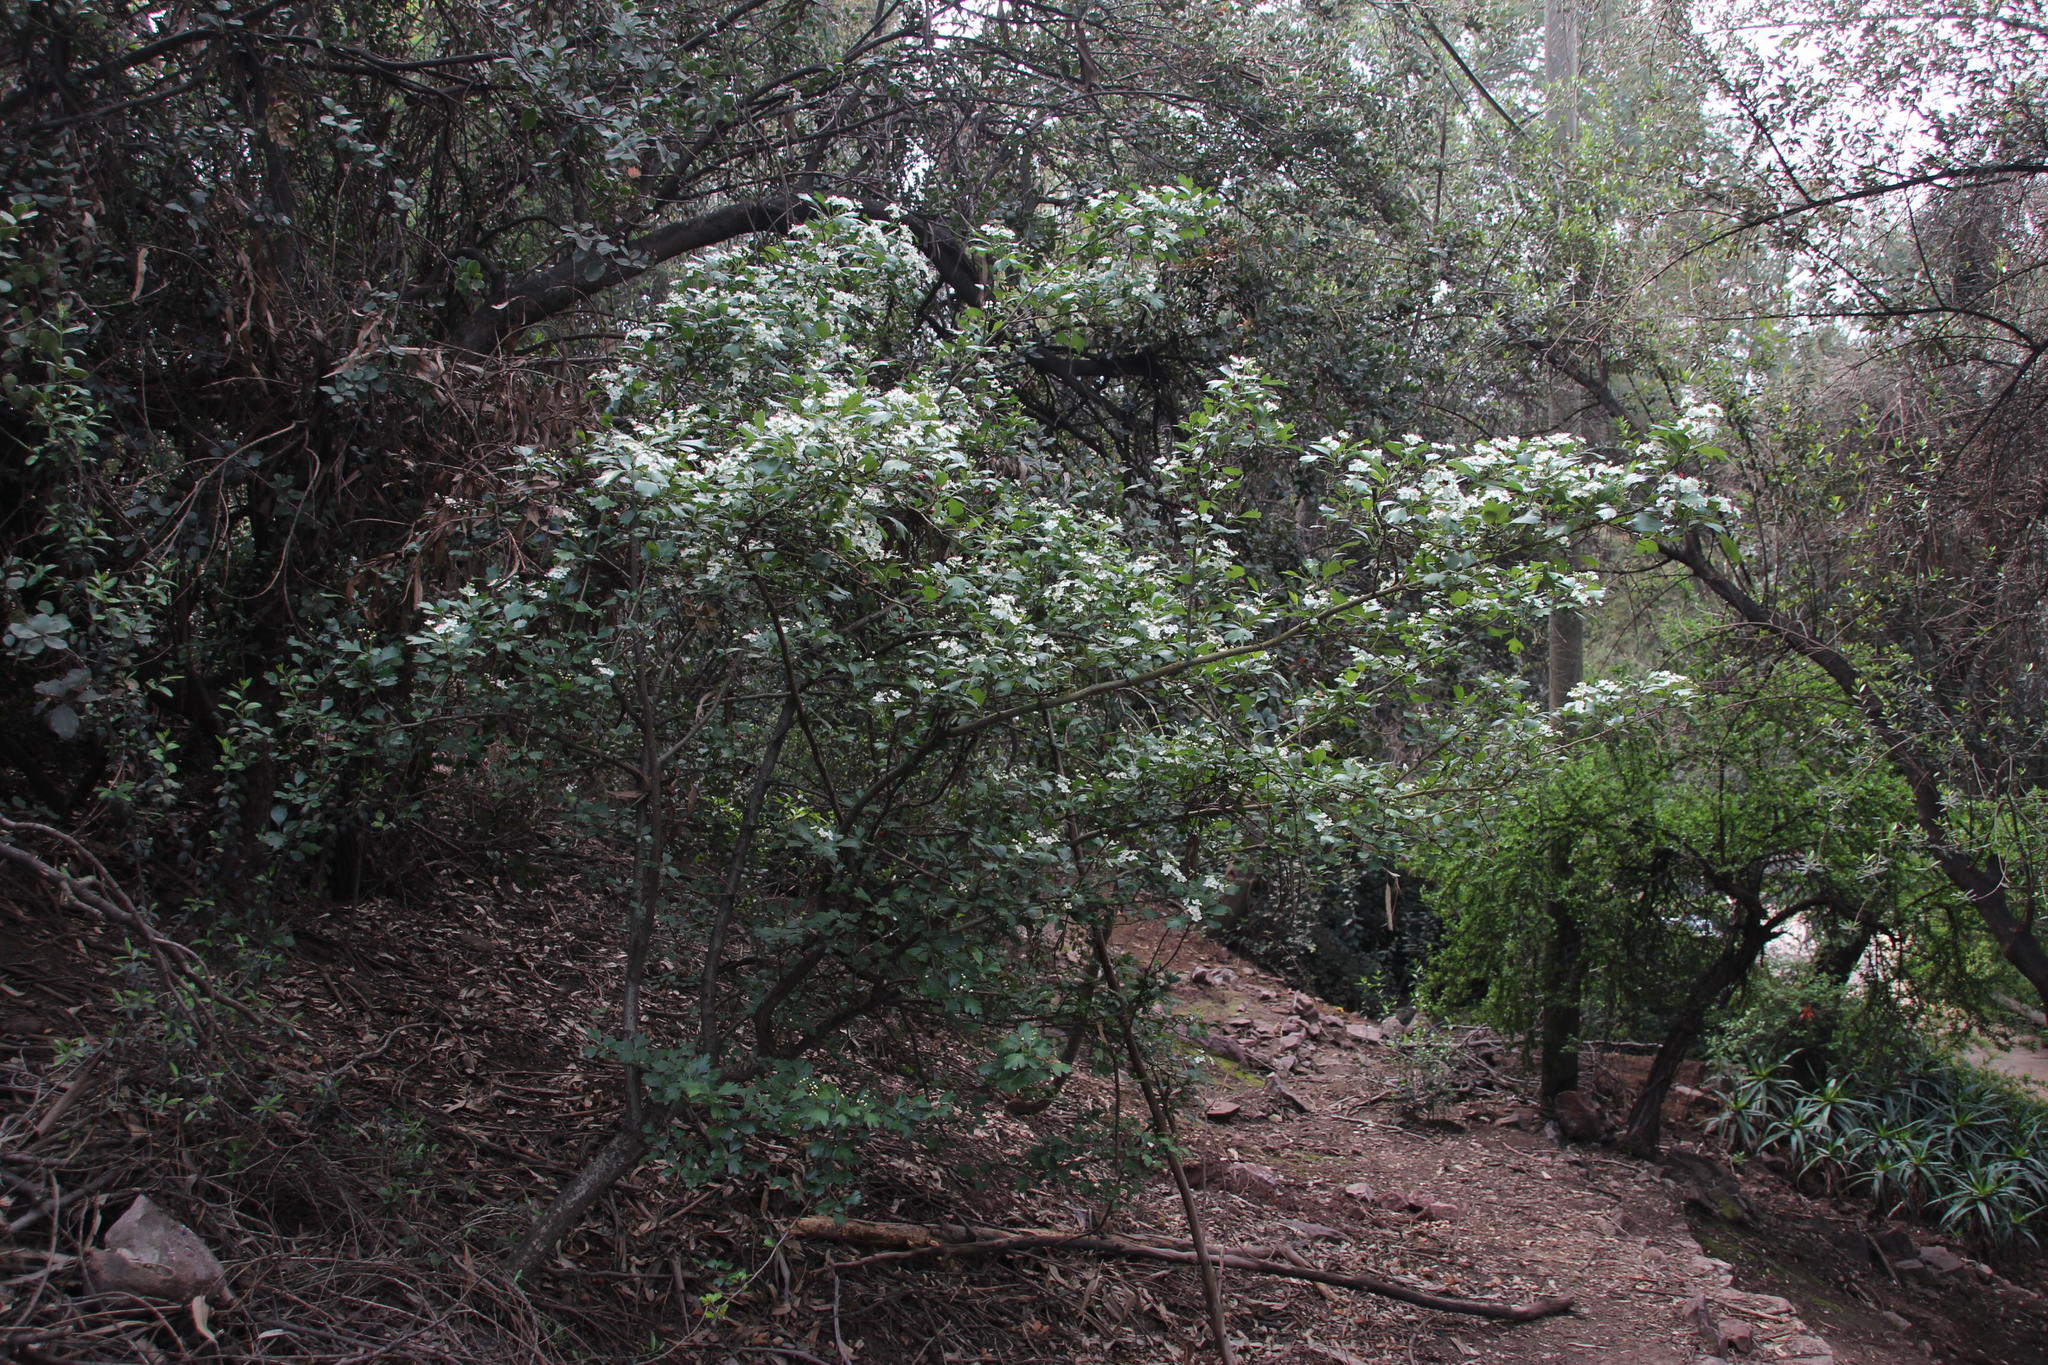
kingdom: Plantae
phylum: Tracheophyta
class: Magnoliopsida
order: Rosales
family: Rosaceae
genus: Crataegus
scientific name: Crataegus monogyna
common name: Hawthorn
